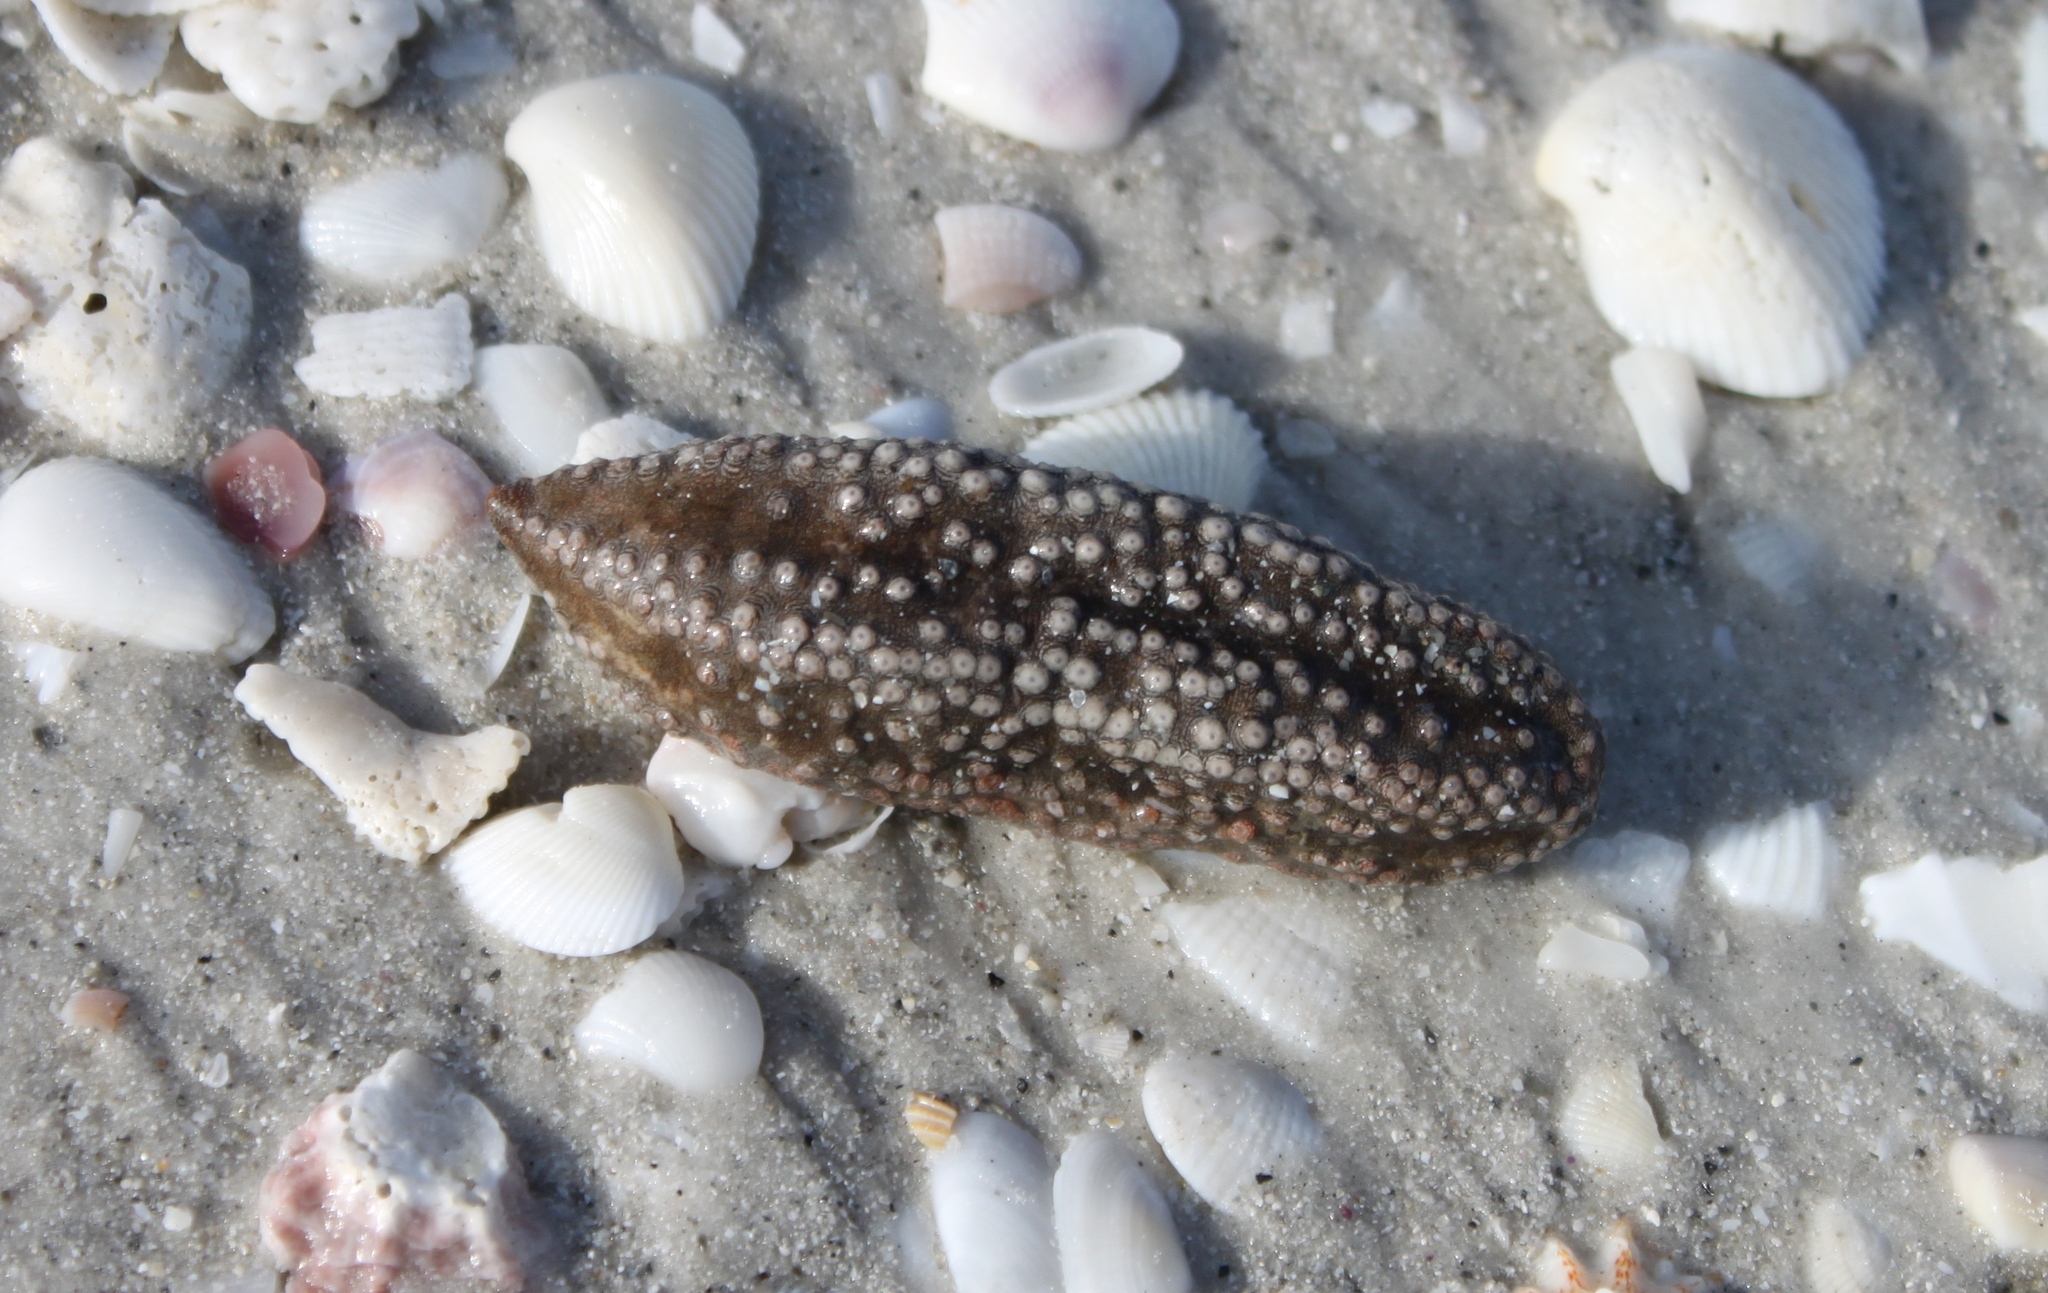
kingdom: Animalia
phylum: Echinodermata
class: Holothuroidea
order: Holothuriida
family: Holothuriidae
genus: Holothuria
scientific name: Holothuria princeps
